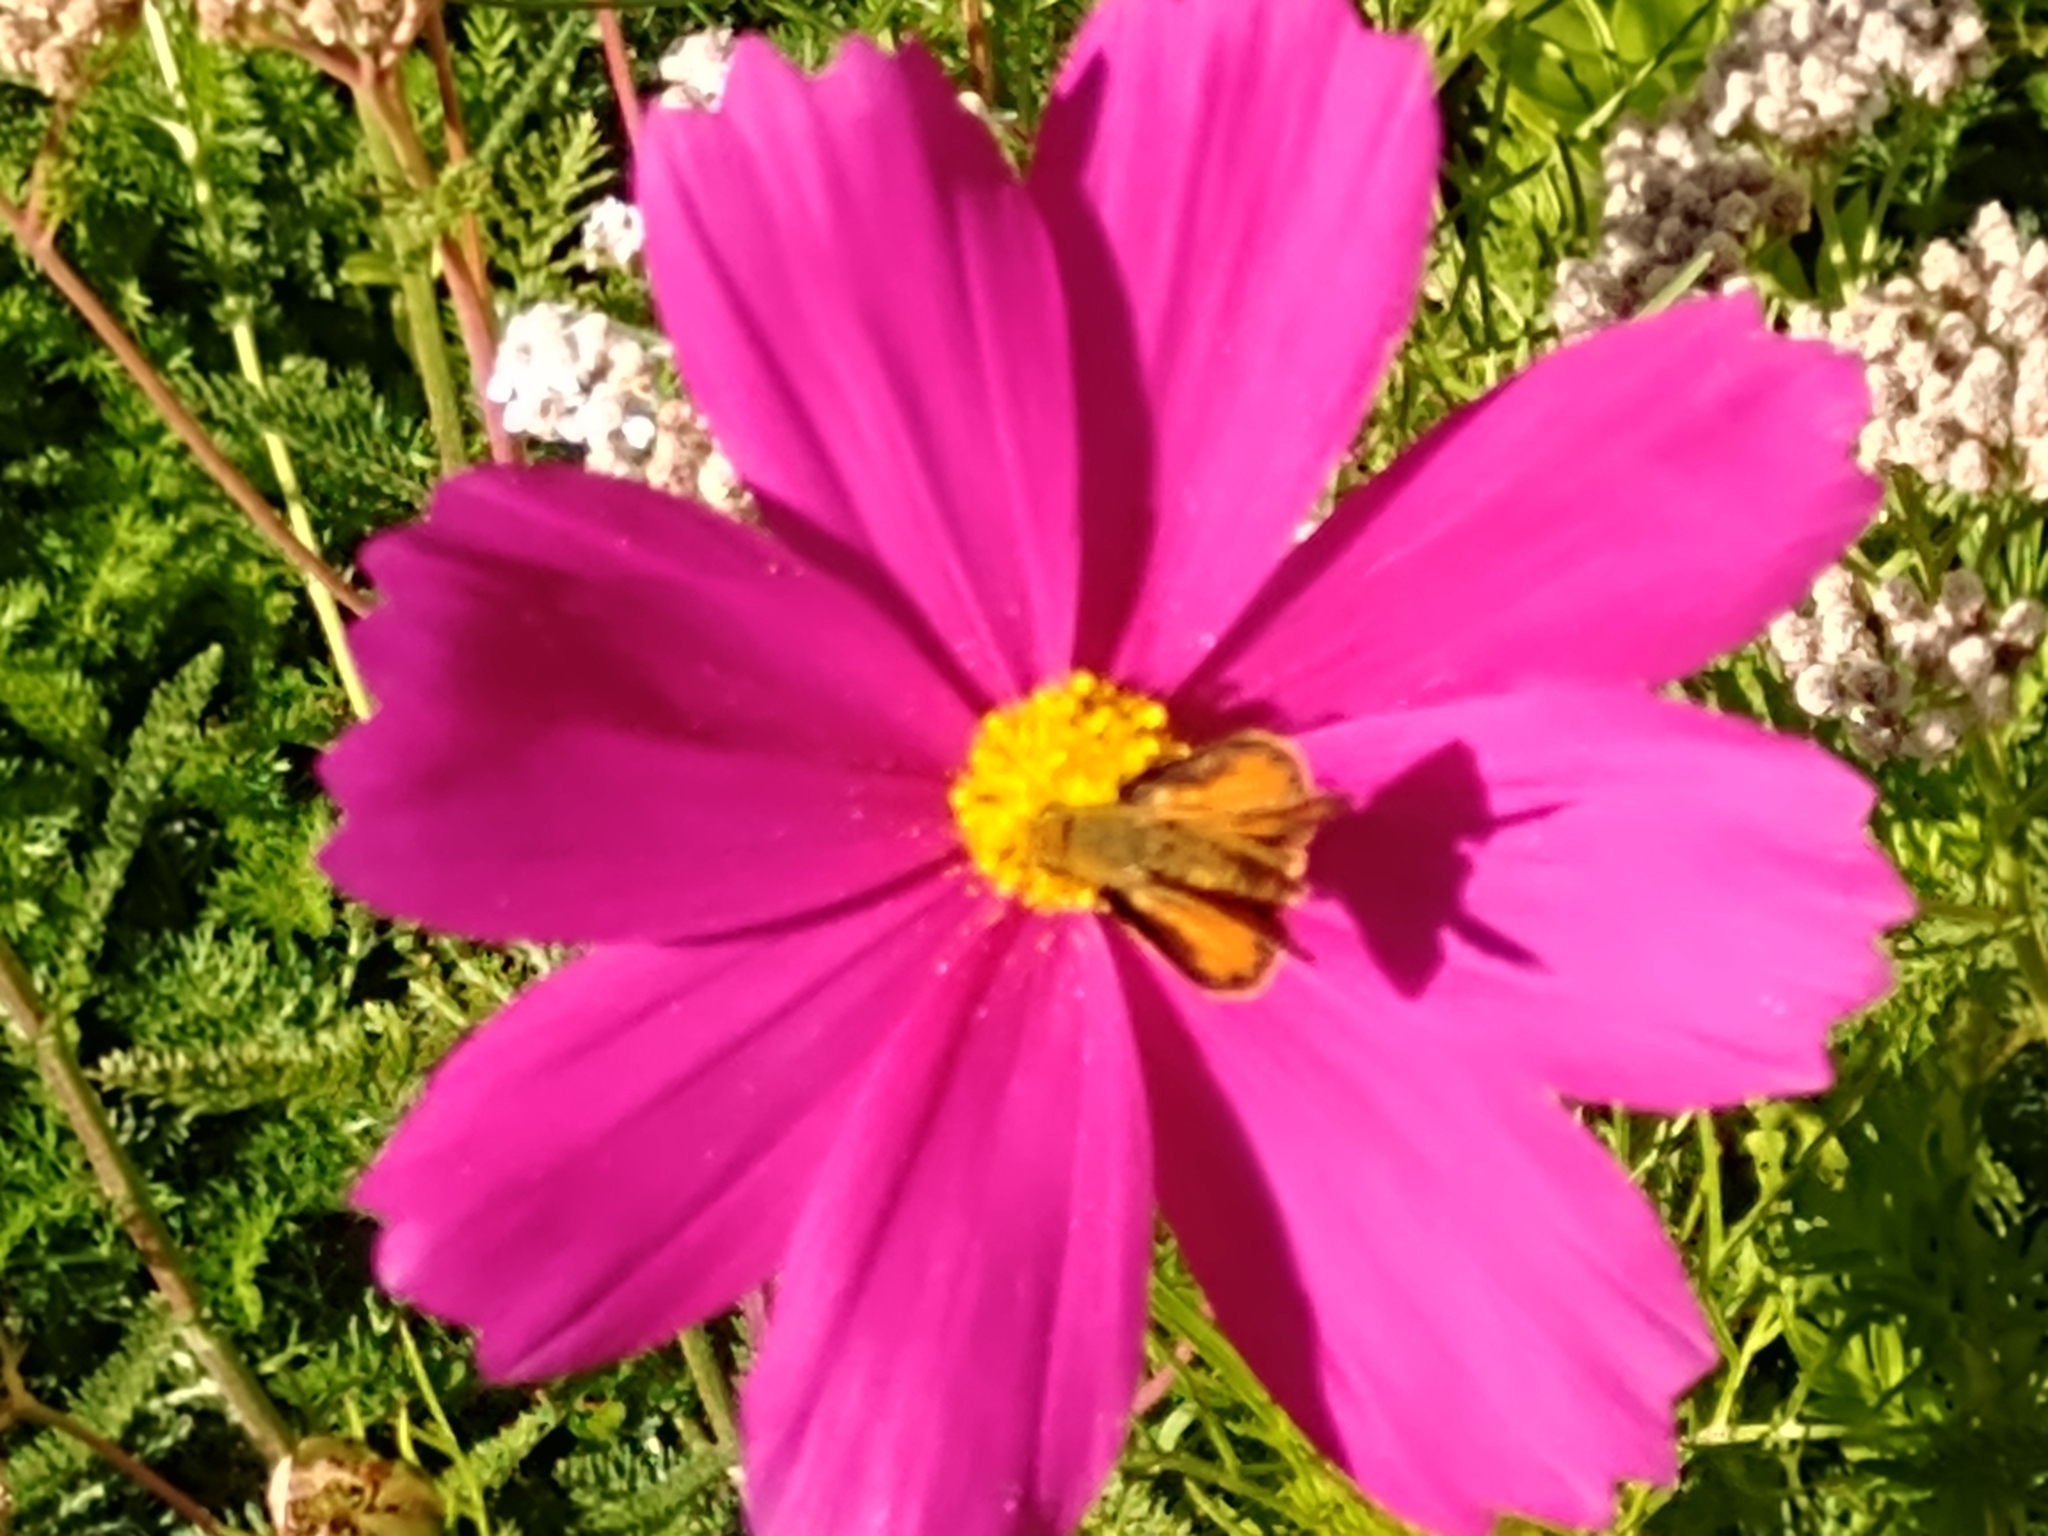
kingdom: Animalia
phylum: Arthropoda
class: Insecta
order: Lepidoptera
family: Hesperiidae
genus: Hylephila
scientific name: Hylephila phyleus
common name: Fiery skipper
